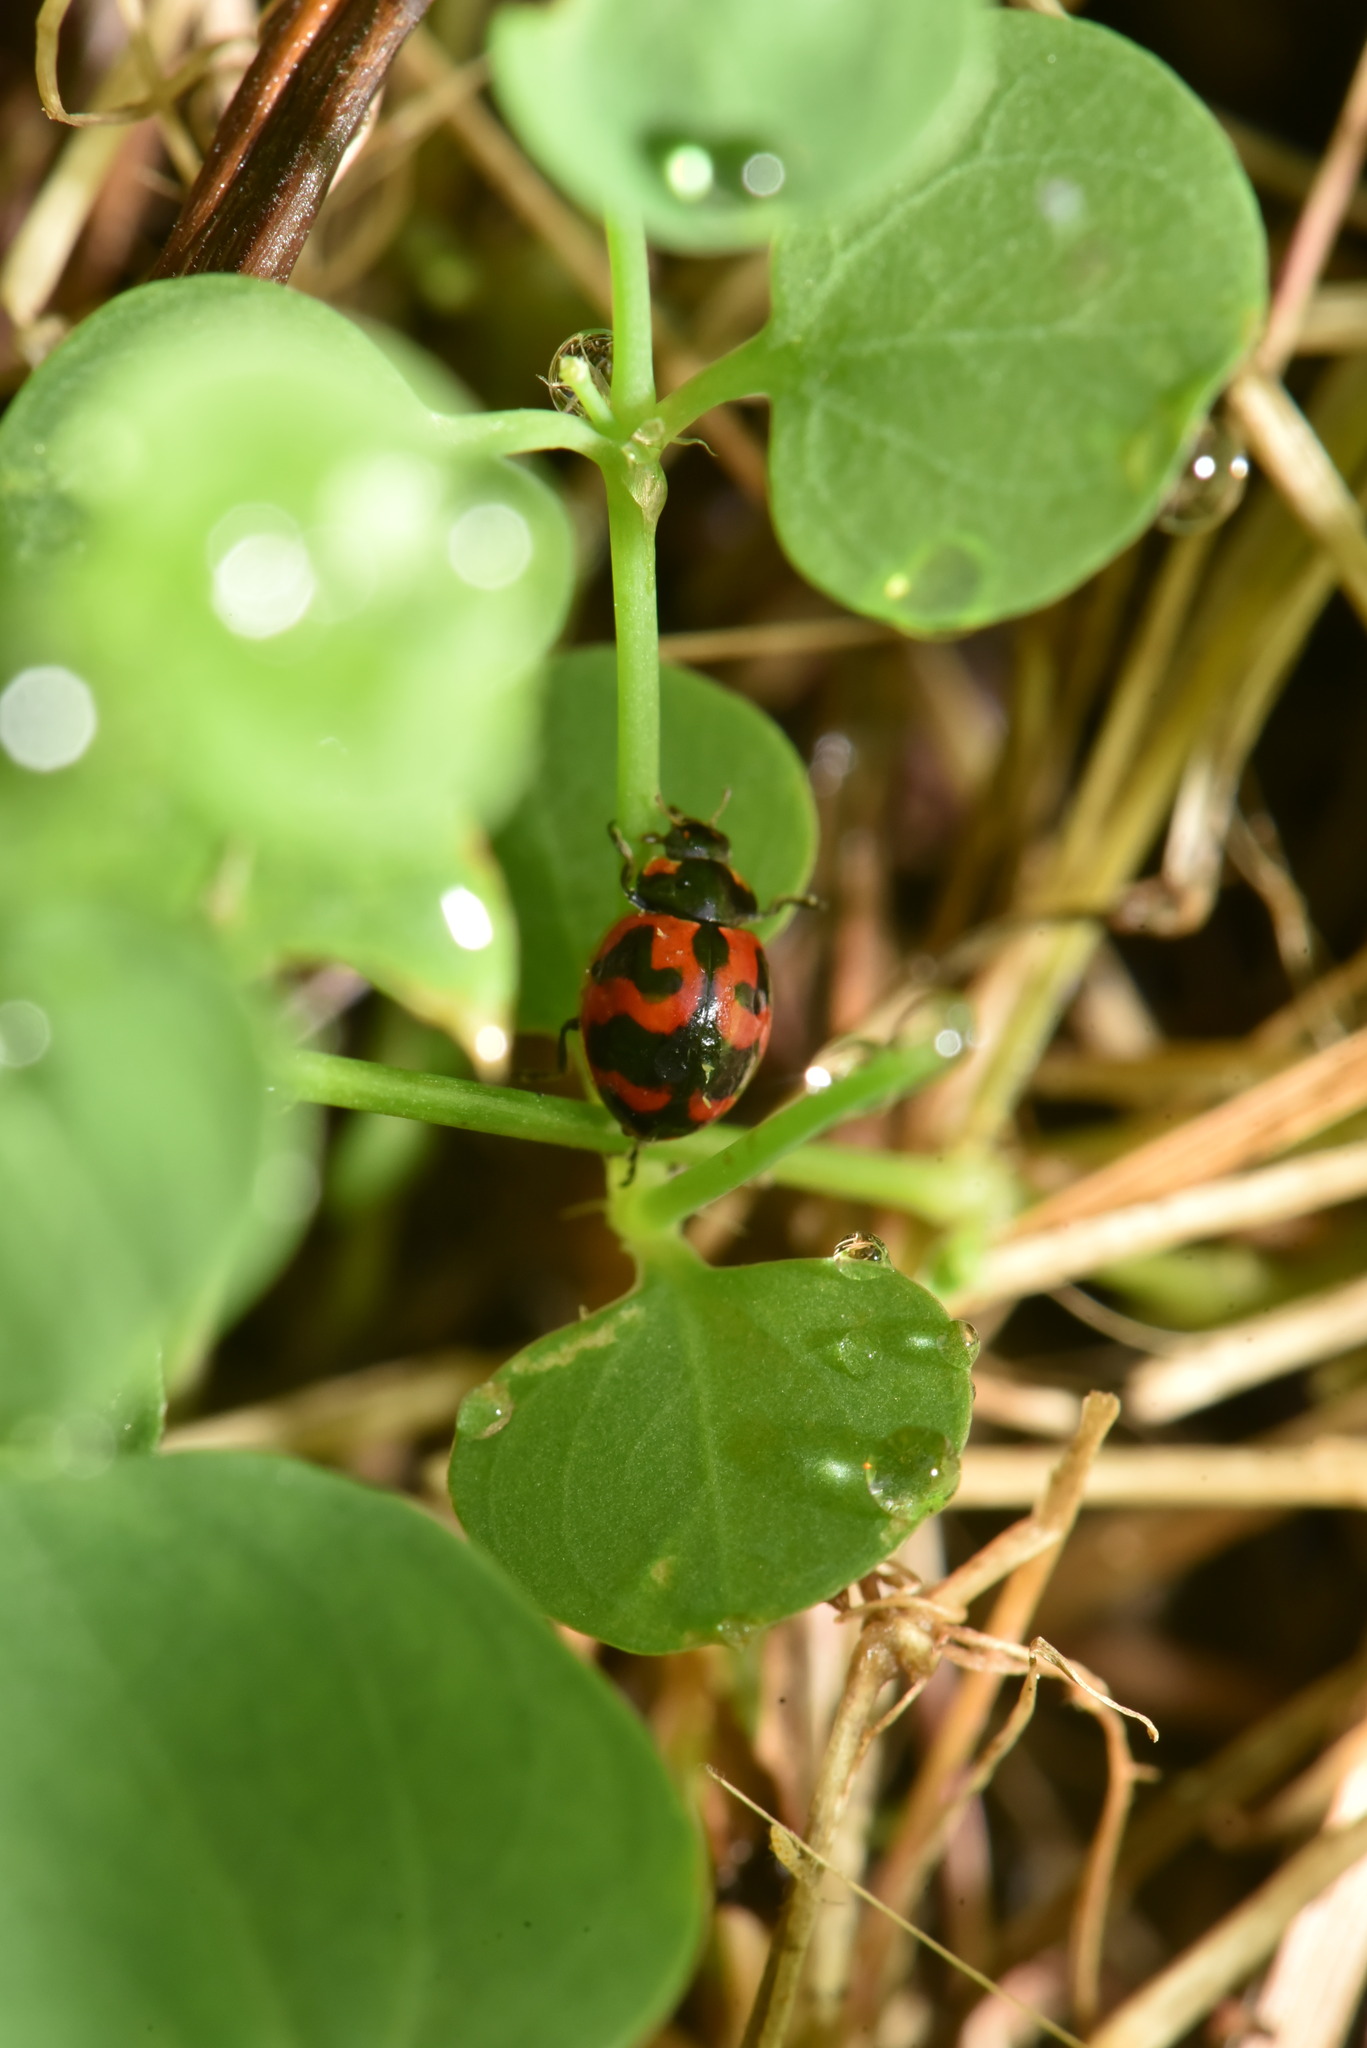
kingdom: Animalia
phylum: Arthropoda
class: Insecta
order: Coleoptera
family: Coccinellidae
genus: Coccinella
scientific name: Coccinella transversalis
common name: Transverse lady beetle
